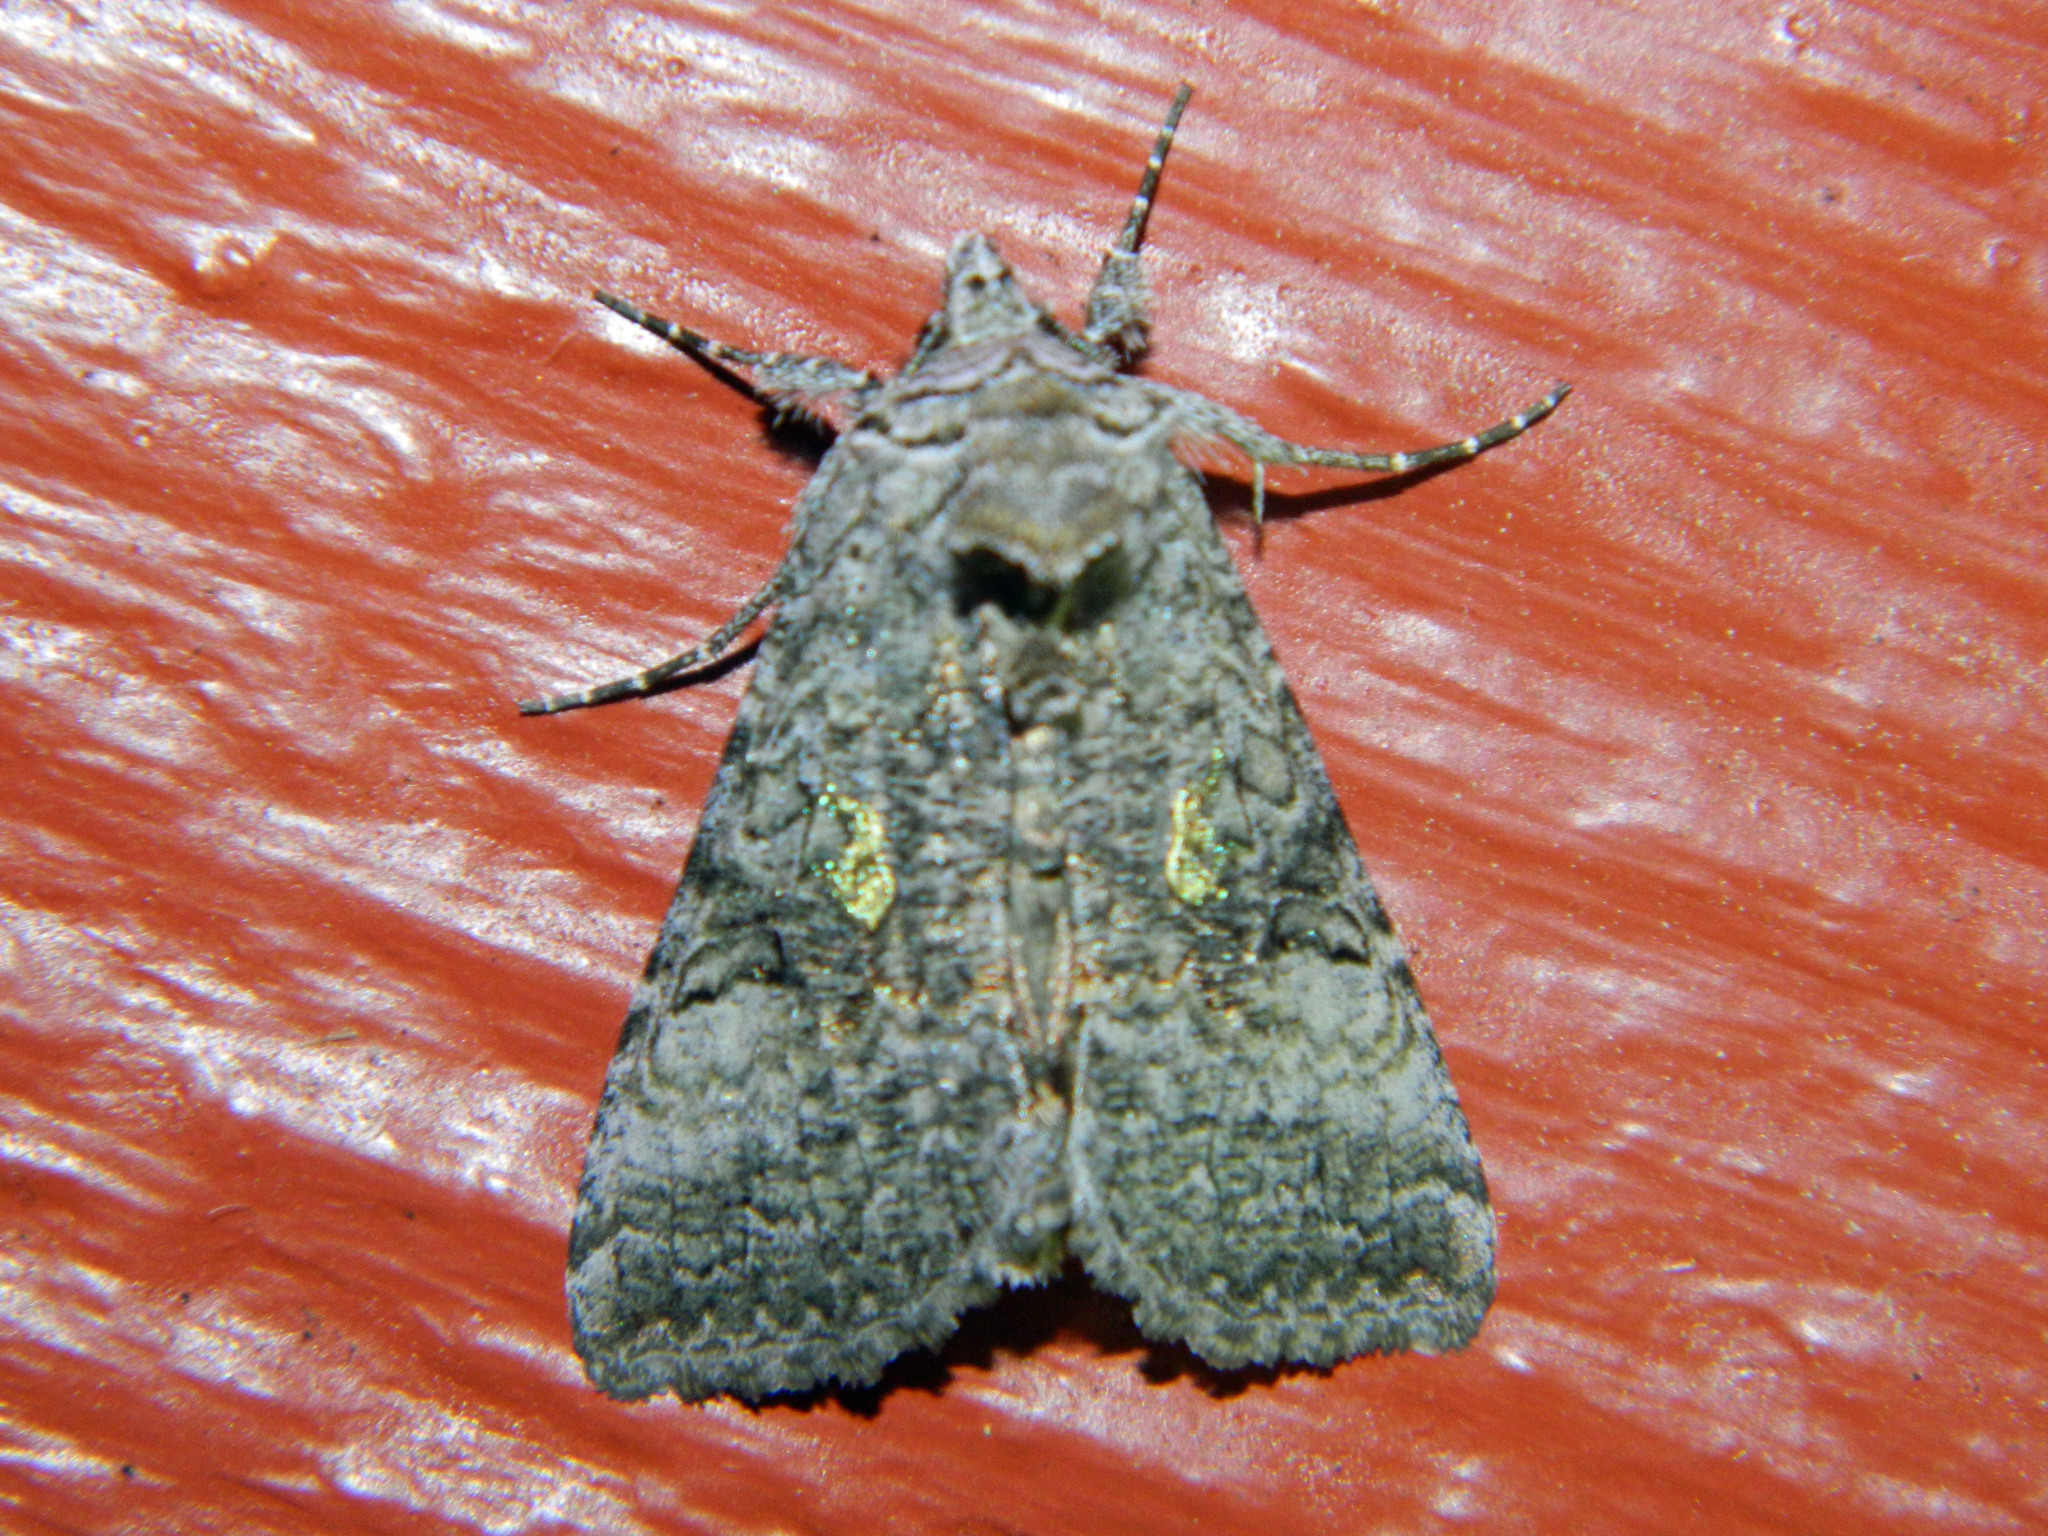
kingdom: Animalia
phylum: Arthropoda
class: Insecta
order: Lepidoptera
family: Noctuidae
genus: Syngrapha
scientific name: Syngrapha viridisigma
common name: Spruce false looper moth
